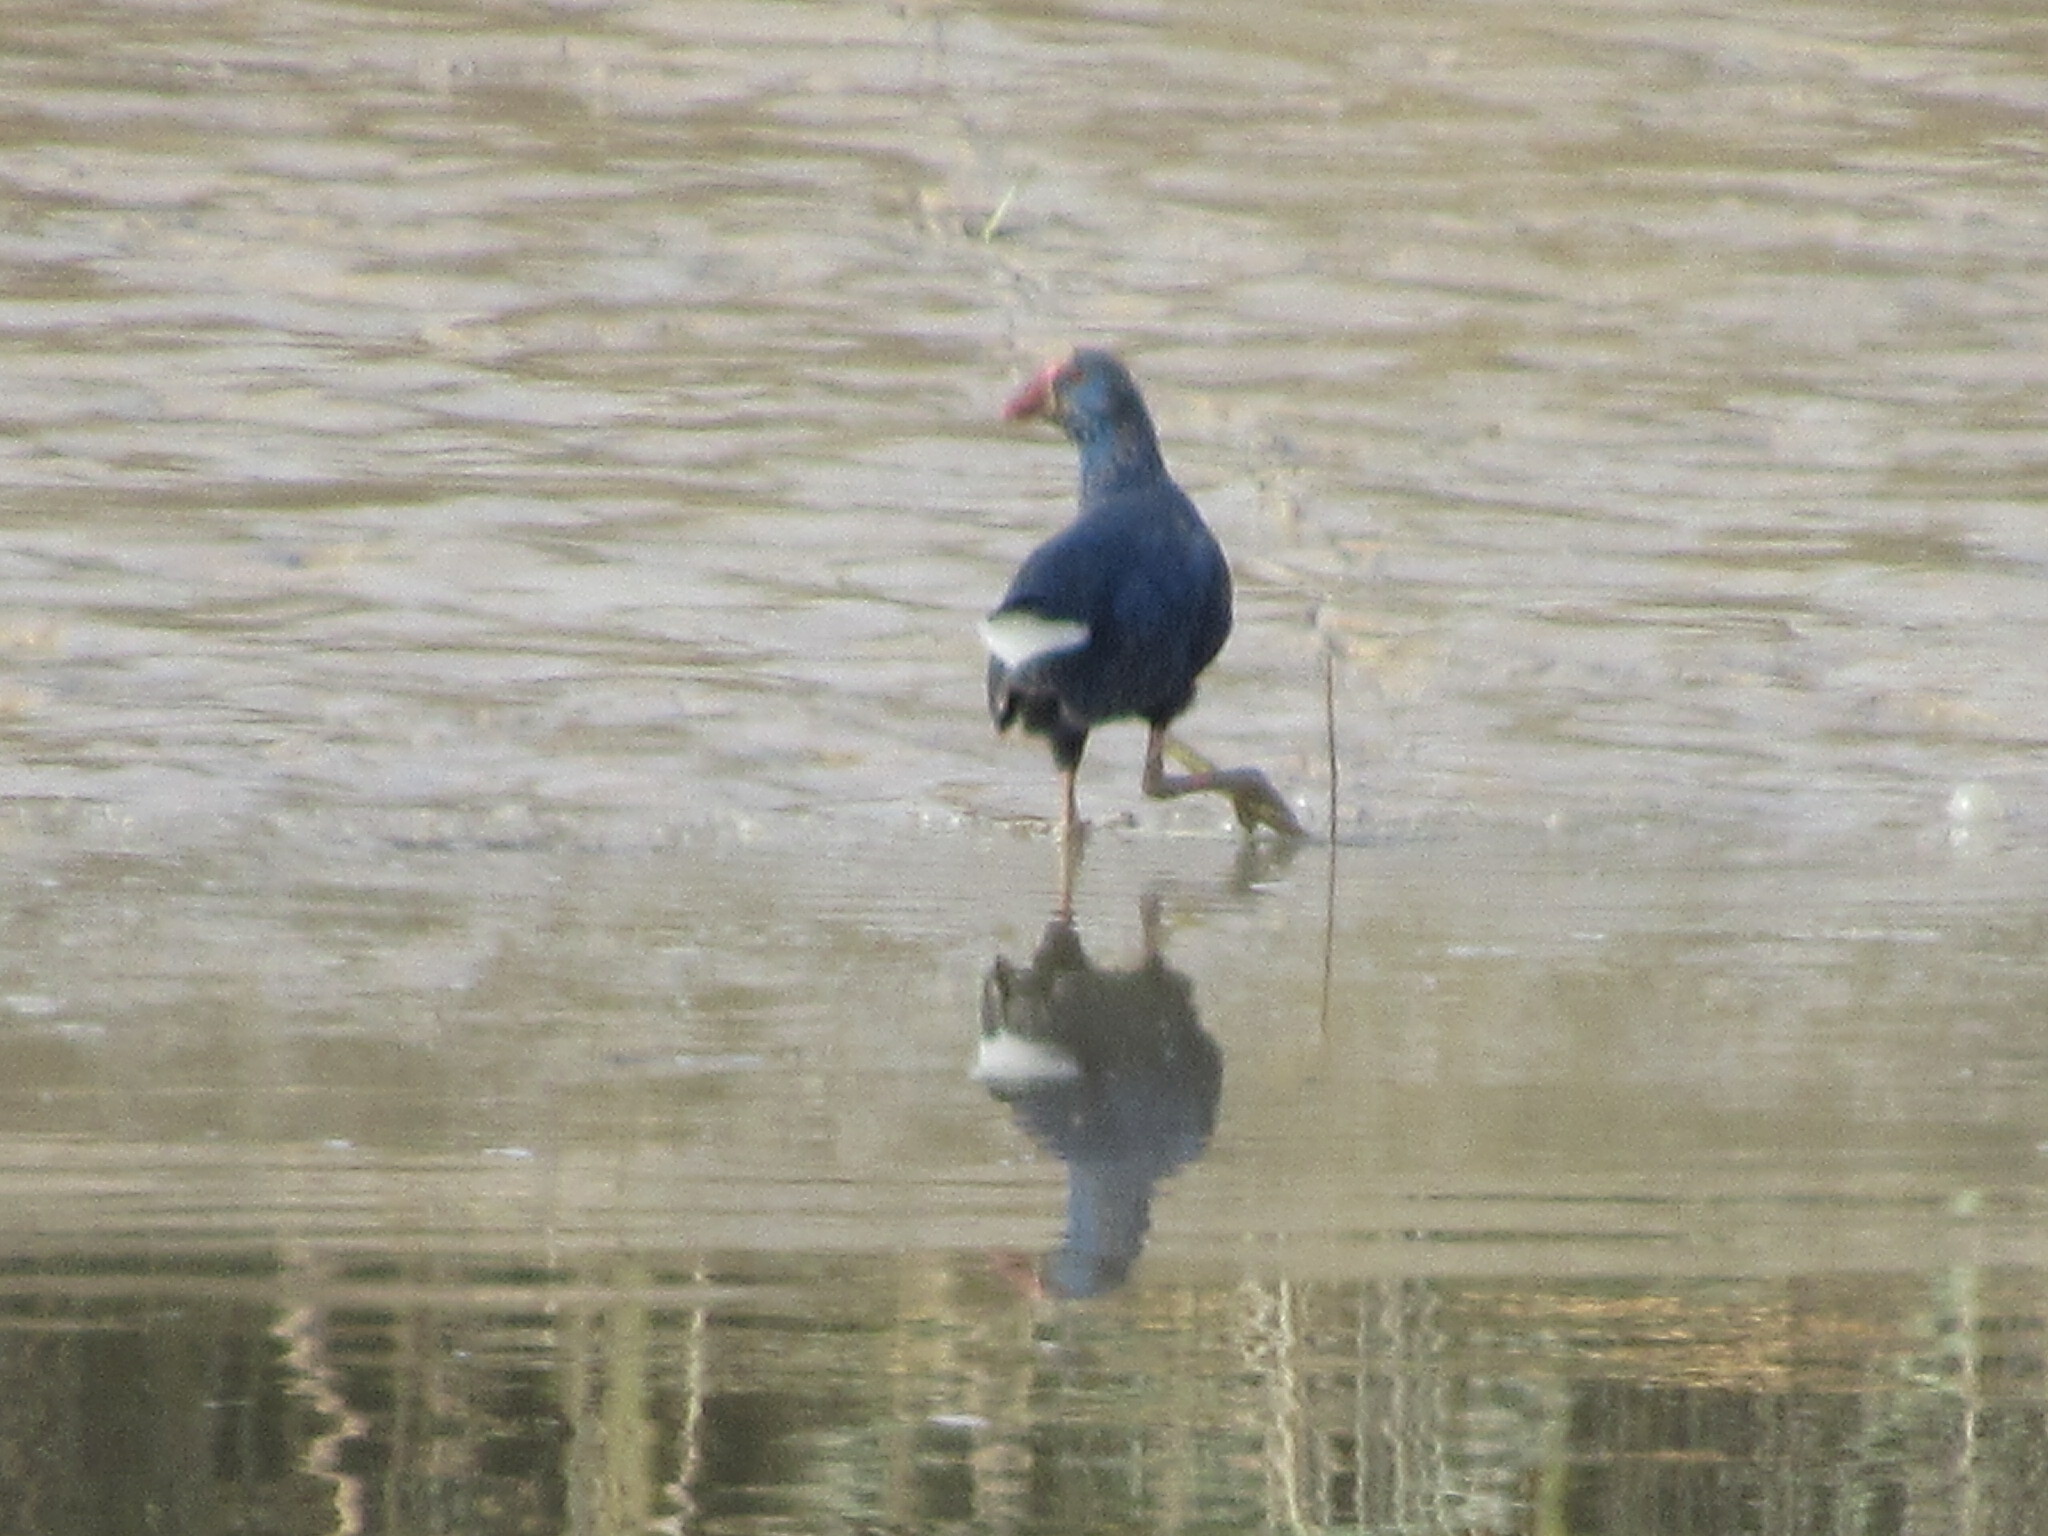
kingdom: Animalia
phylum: Chordata
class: Aves
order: Gruiformes
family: Rallidae
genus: Porphyrio
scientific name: Porphyrio porphyrio
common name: Purple swamphen
